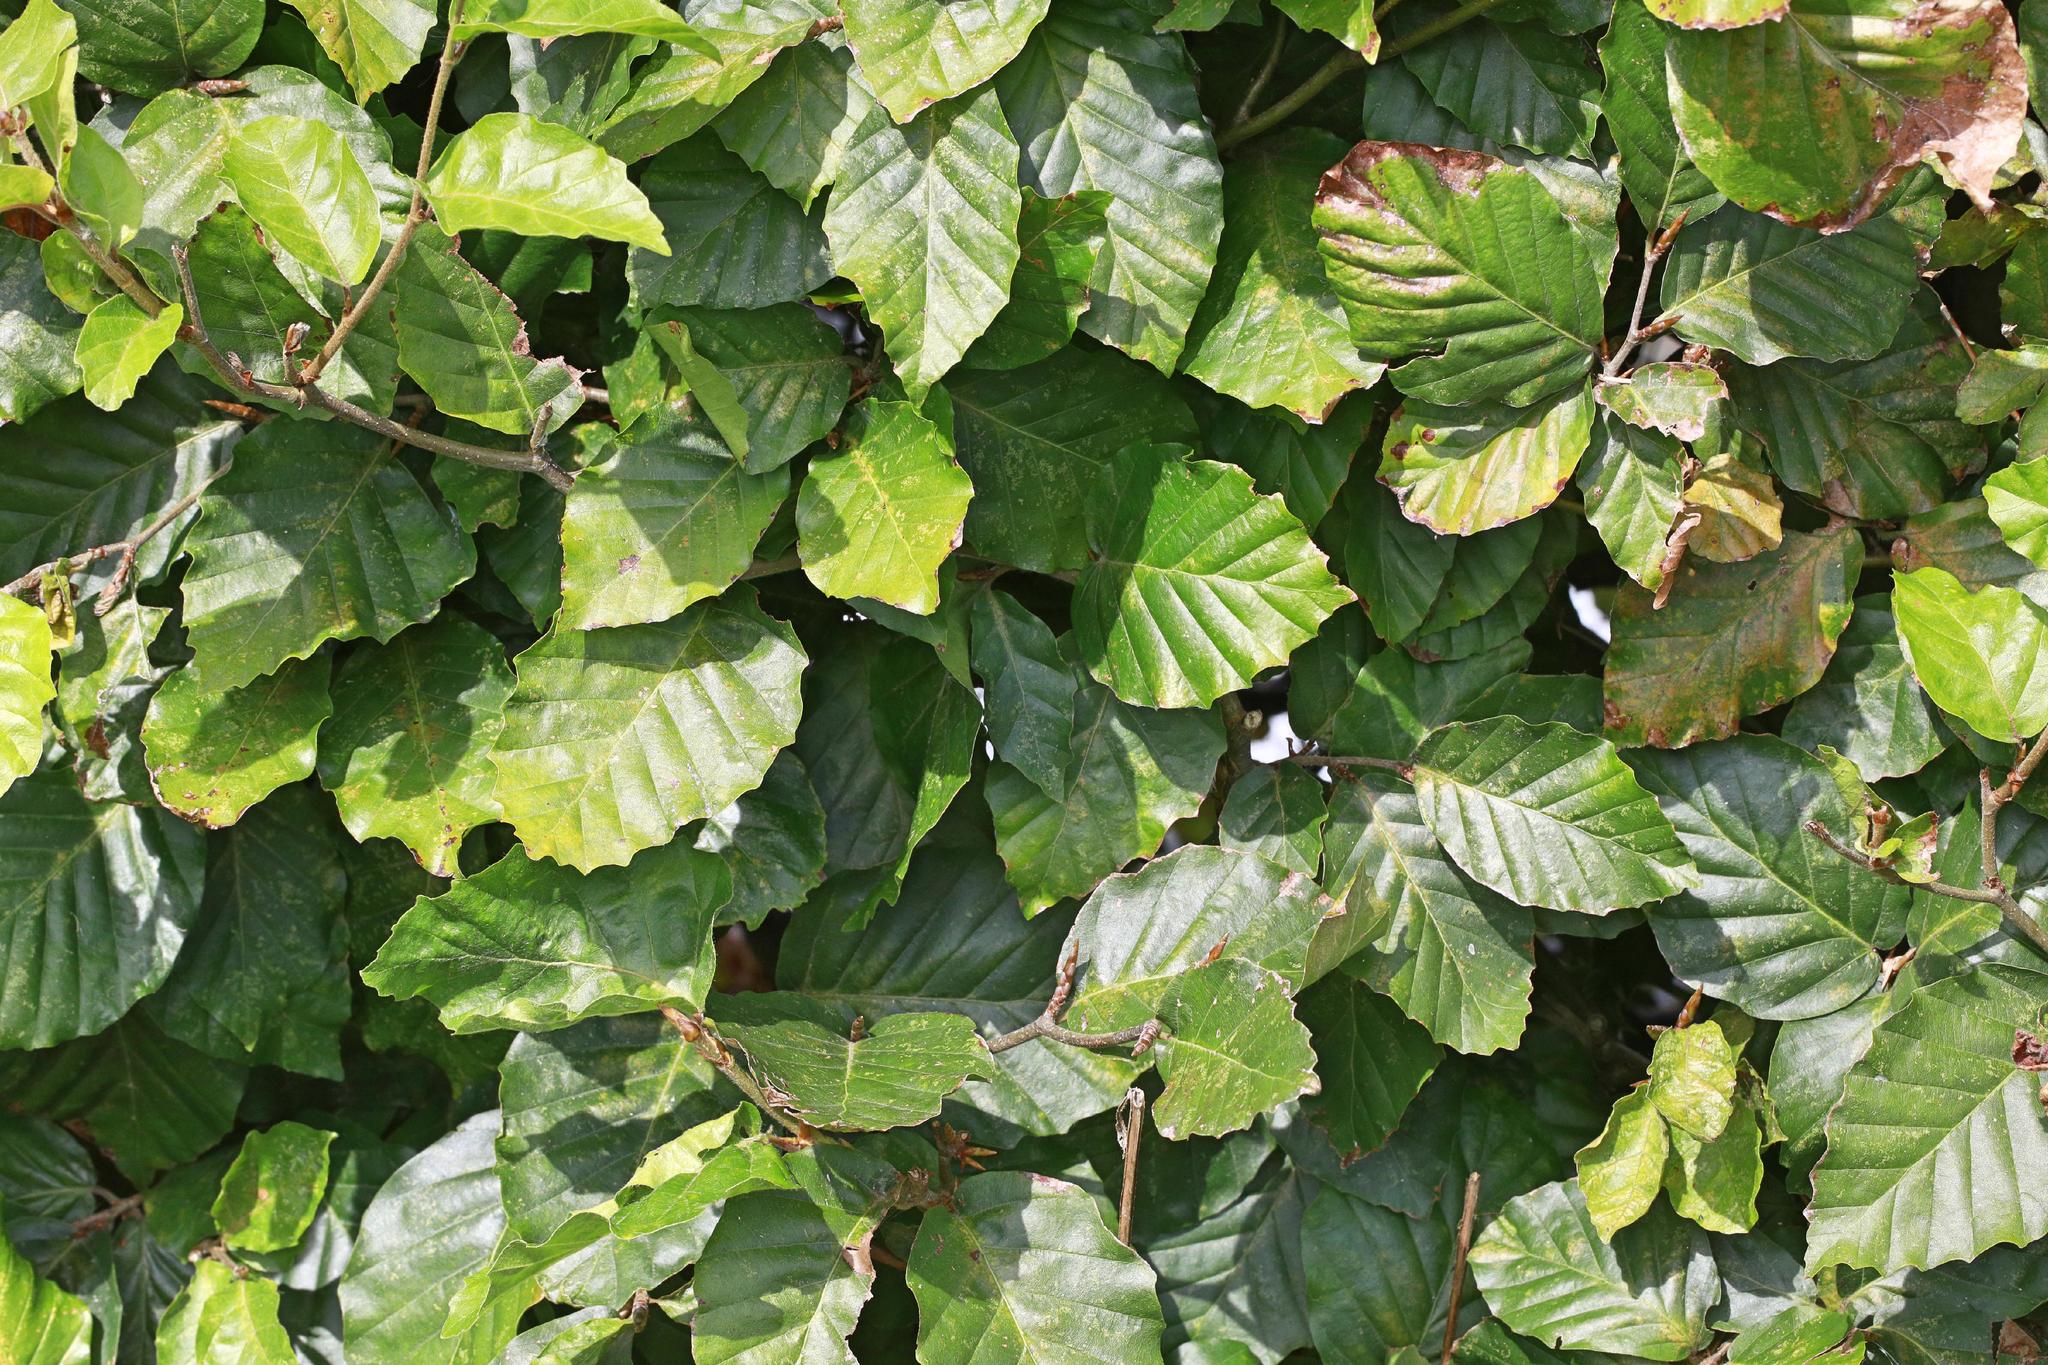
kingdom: Plantae
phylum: Tracheophyta
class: Magnoliopsida
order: Fagales
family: Fagaceae
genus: Fagus
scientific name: Fagus sylvatica
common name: Beech
